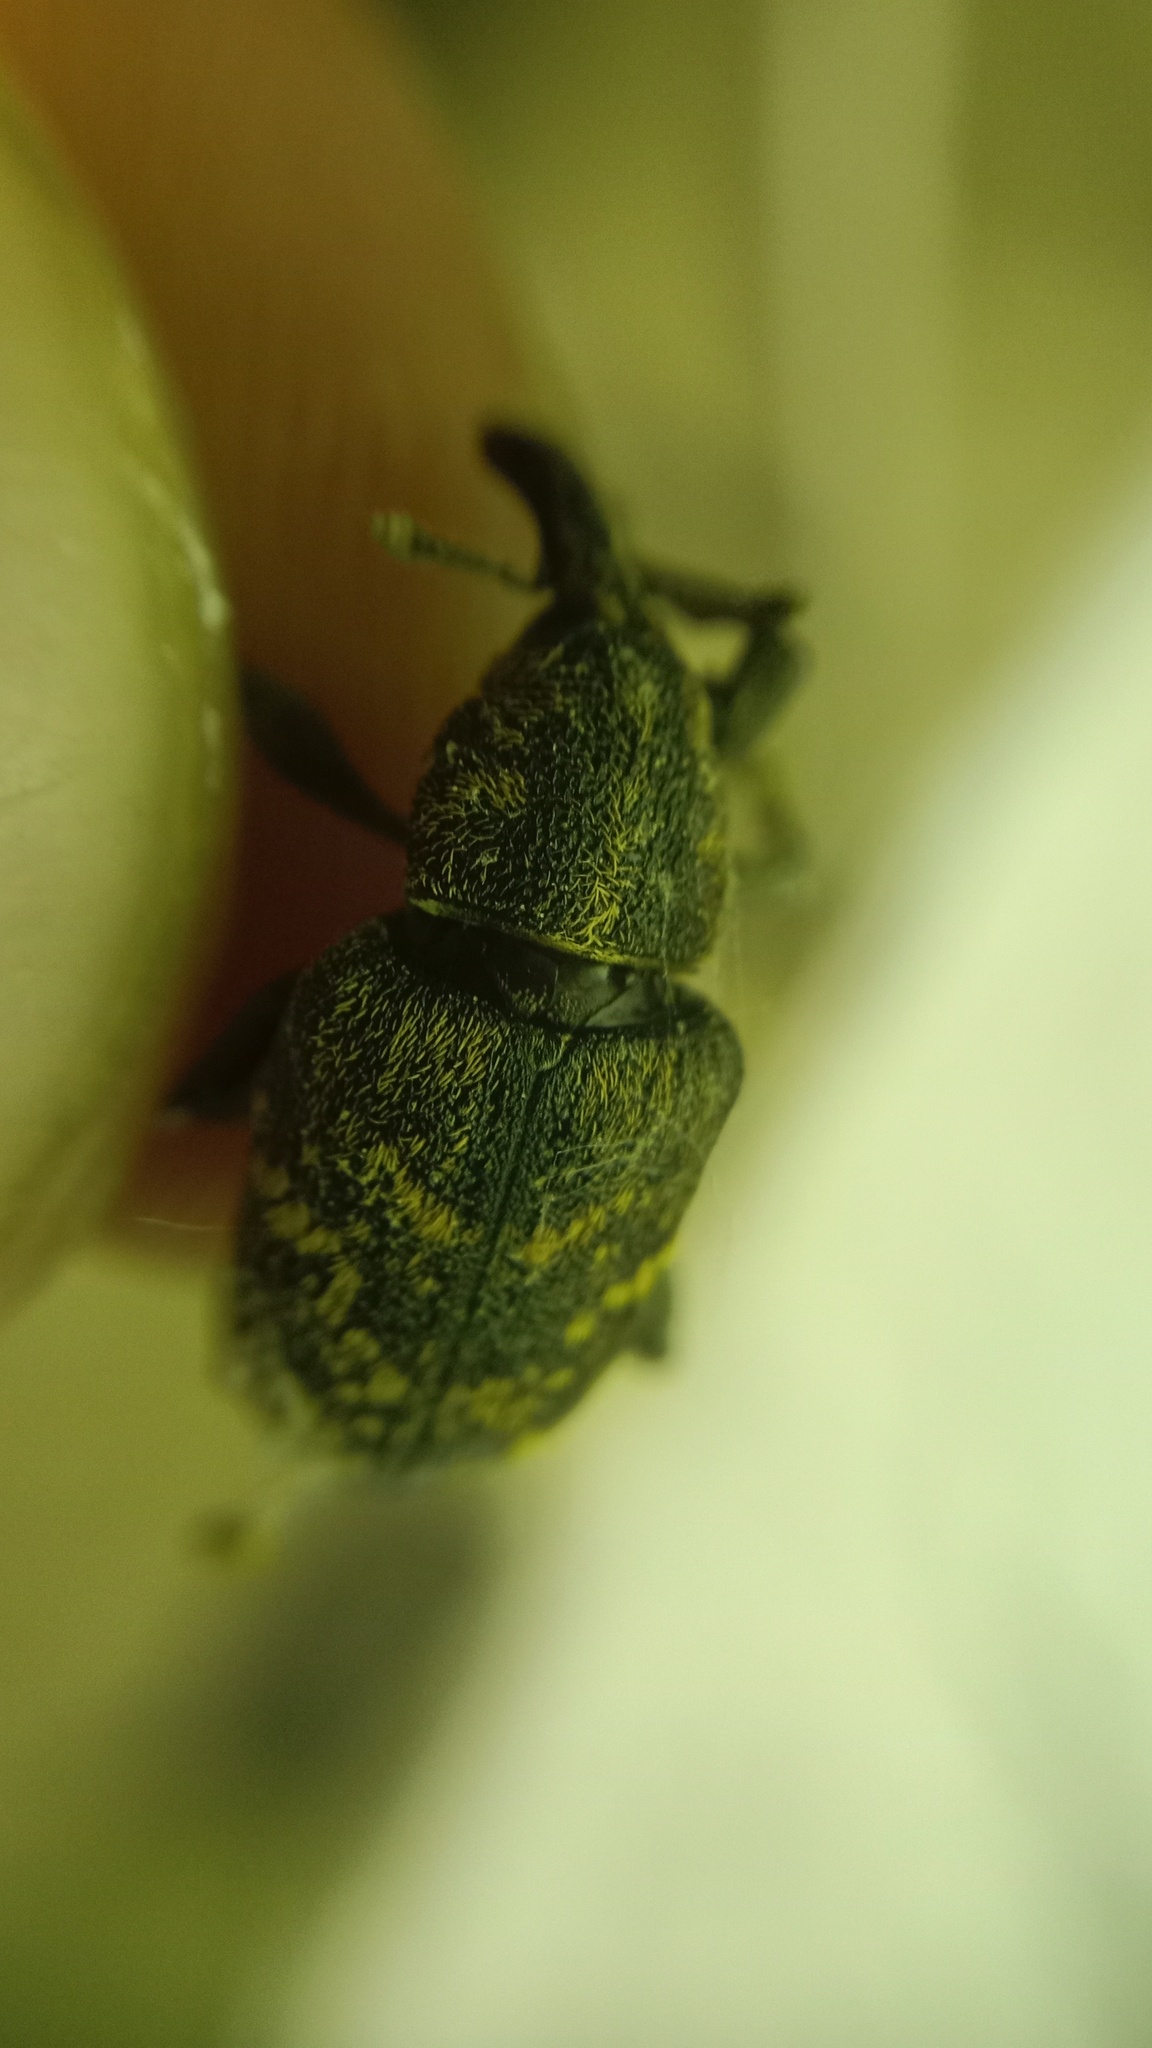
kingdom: Animalia
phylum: Arthropoda
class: Insecta
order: Coleoptera
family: Curculionidae
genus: Hylobius
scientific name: Hylobius abietis
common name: Large pine weevil
